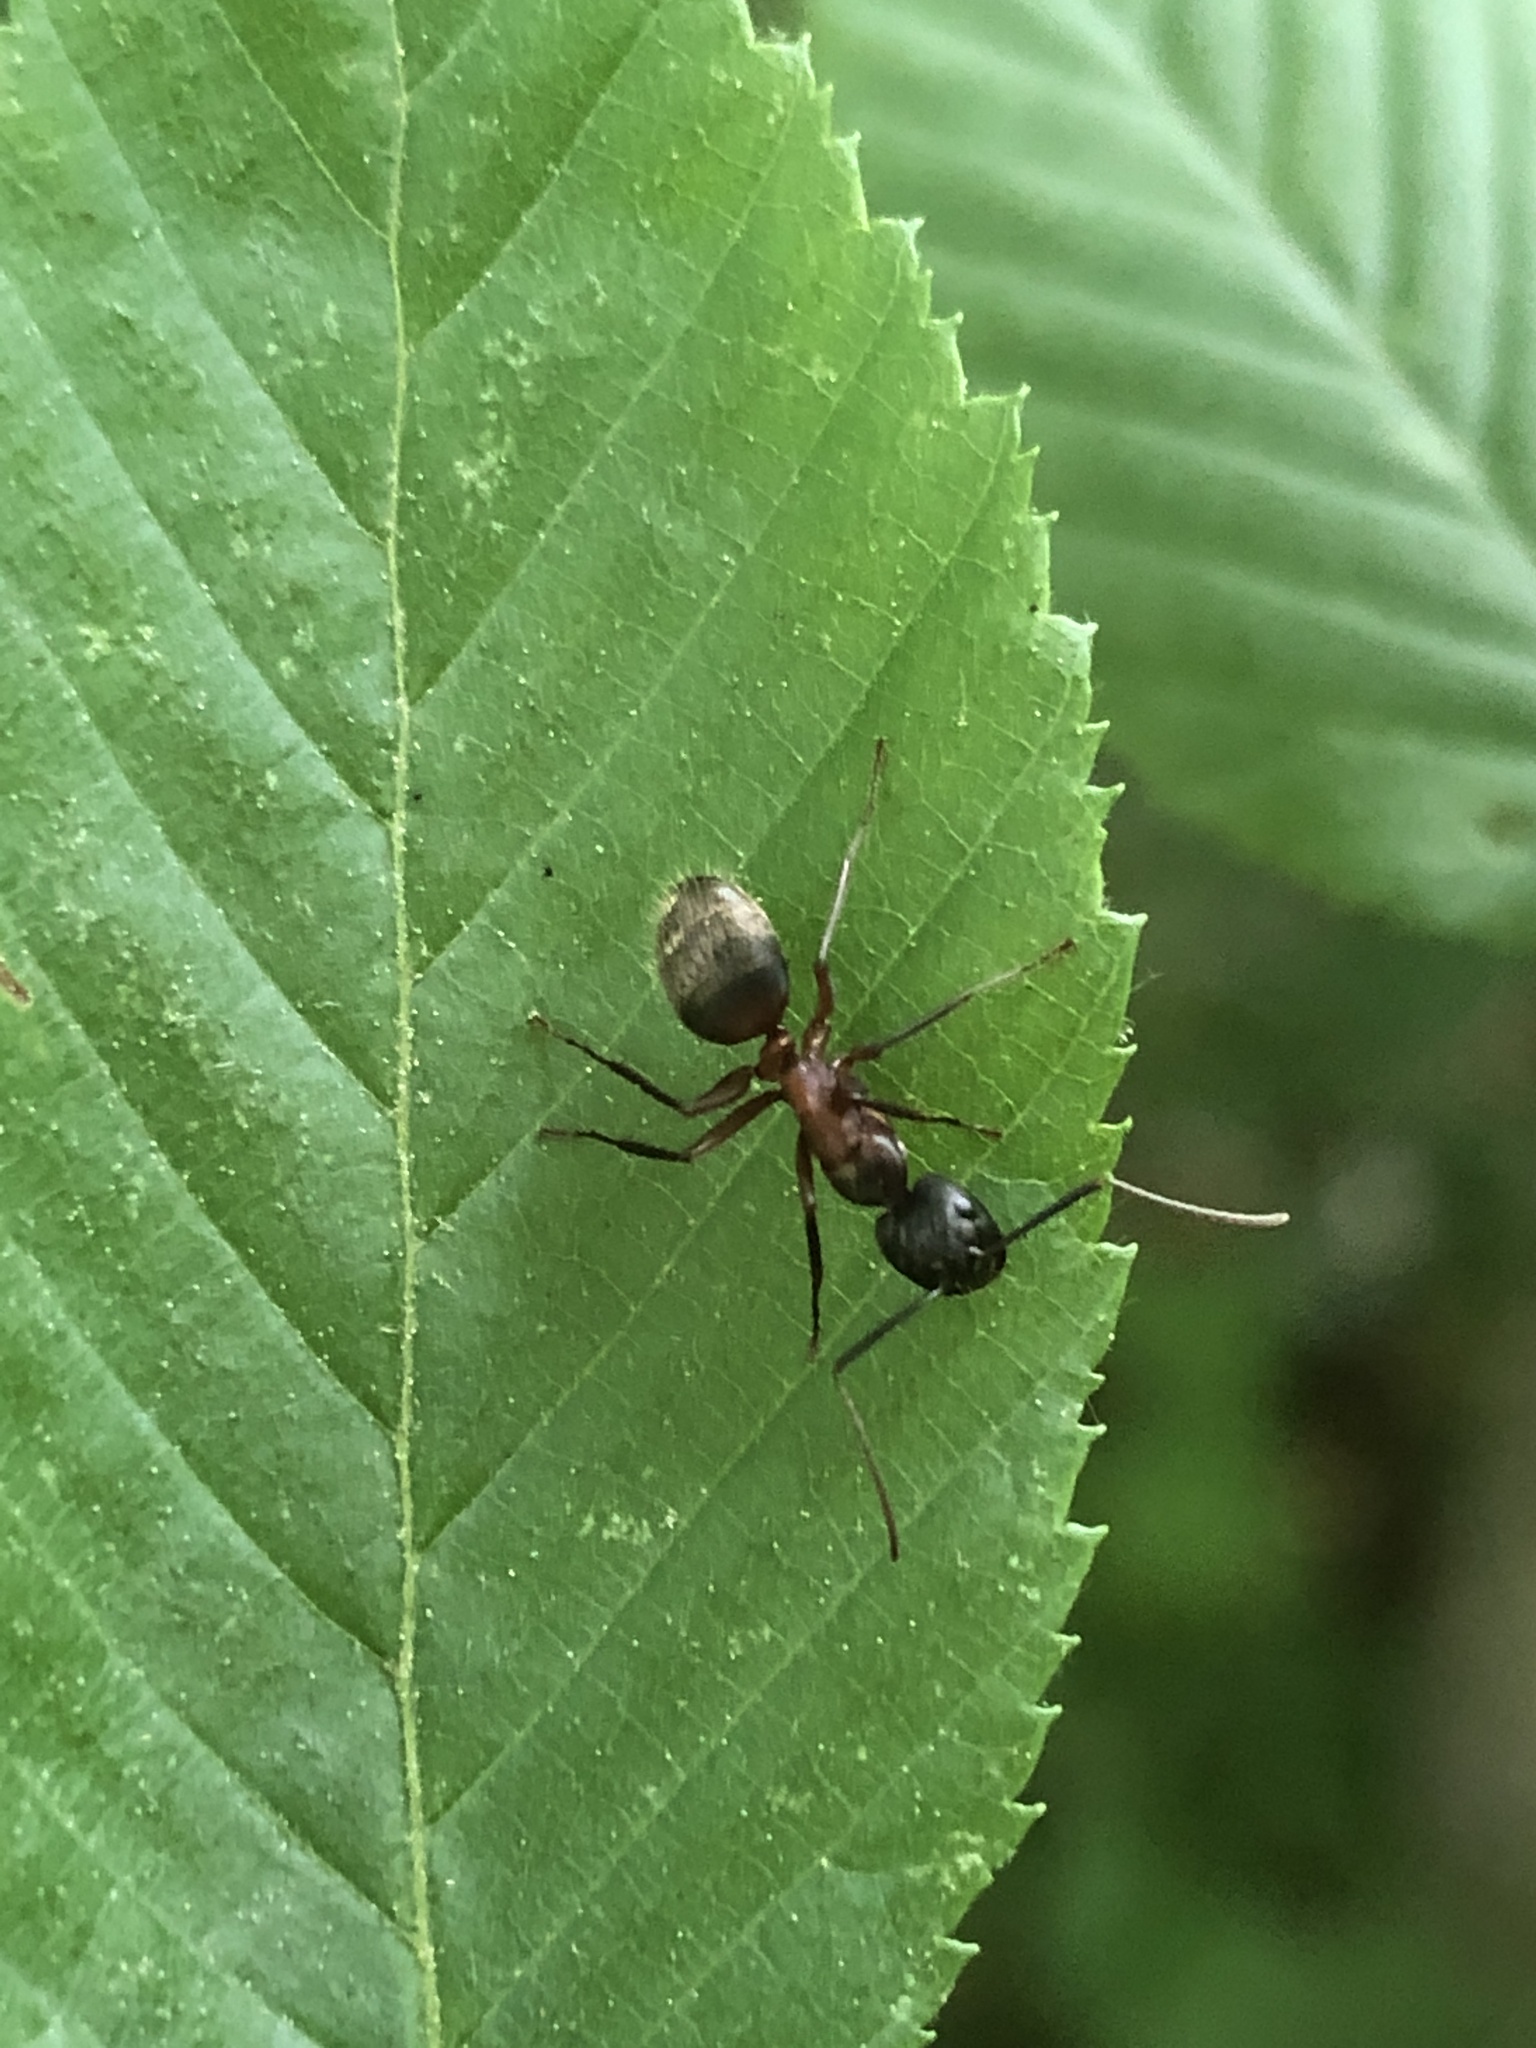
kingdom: Animalia
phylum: Arthropoda
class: Insecta
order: Hymenoptera
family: Formicidae
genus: Camponotus
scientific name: Camponotus chromaiodes
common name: Red carpenter ant
